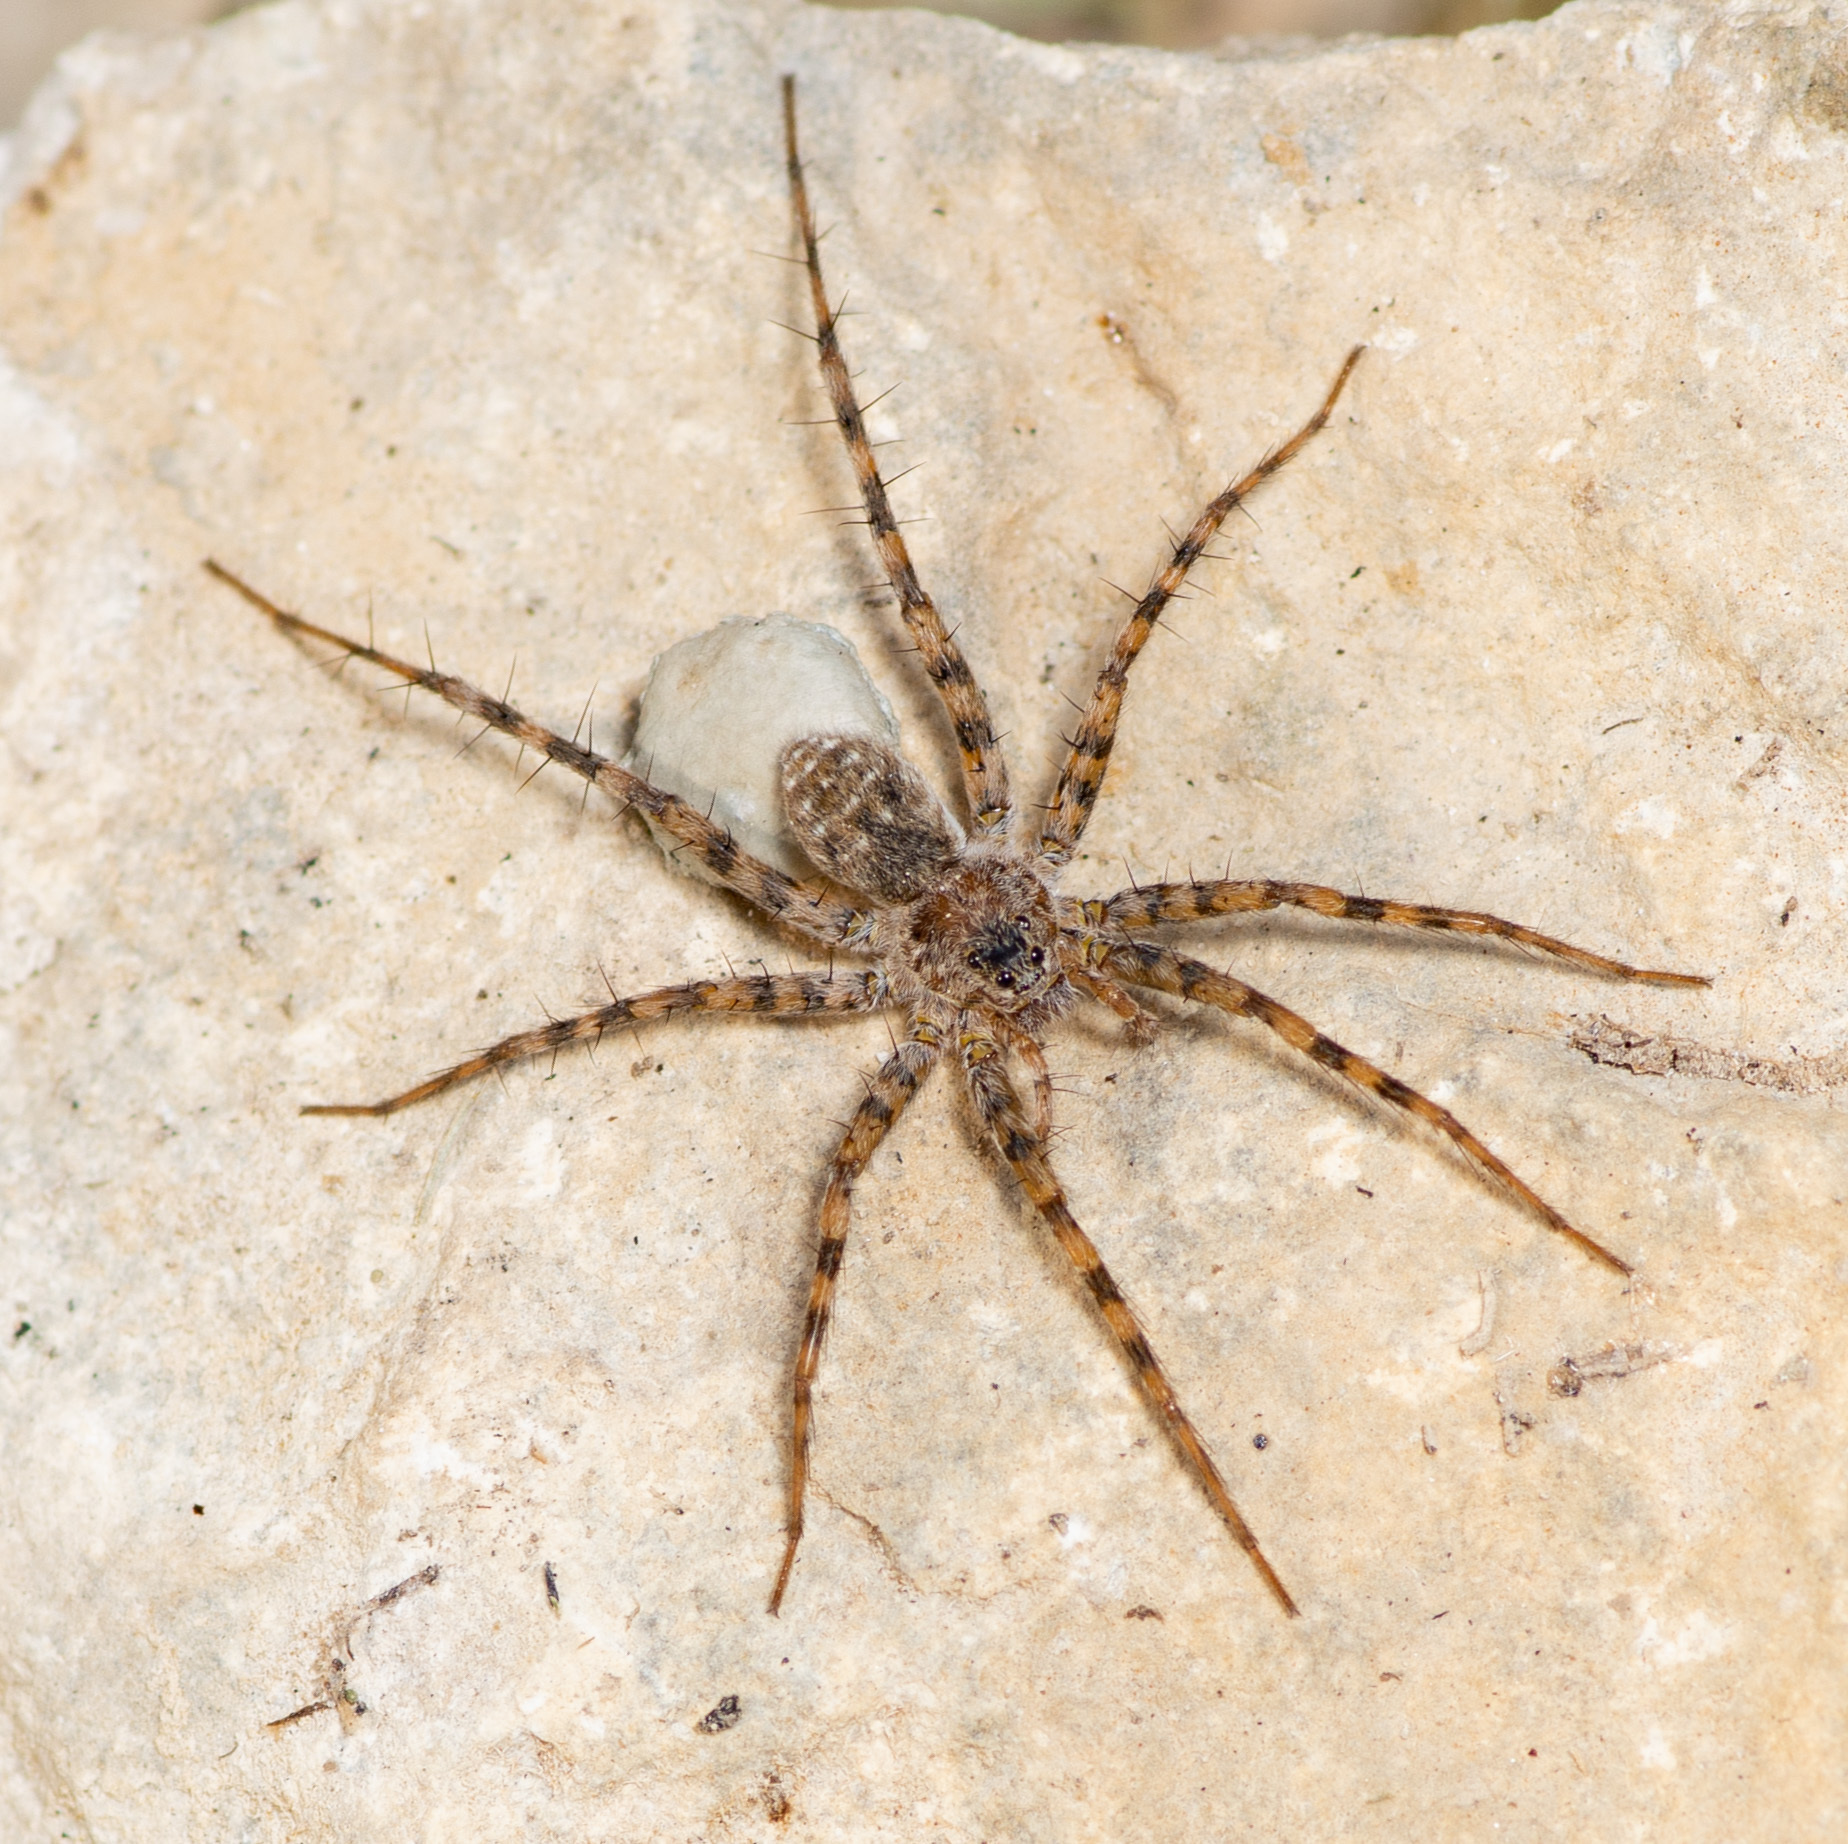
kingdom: Animalia
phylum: Arthropoda
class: Arachnida
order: Araneae
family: Lycosidae
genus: Pardosa
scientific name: Pardosa mercurialis
